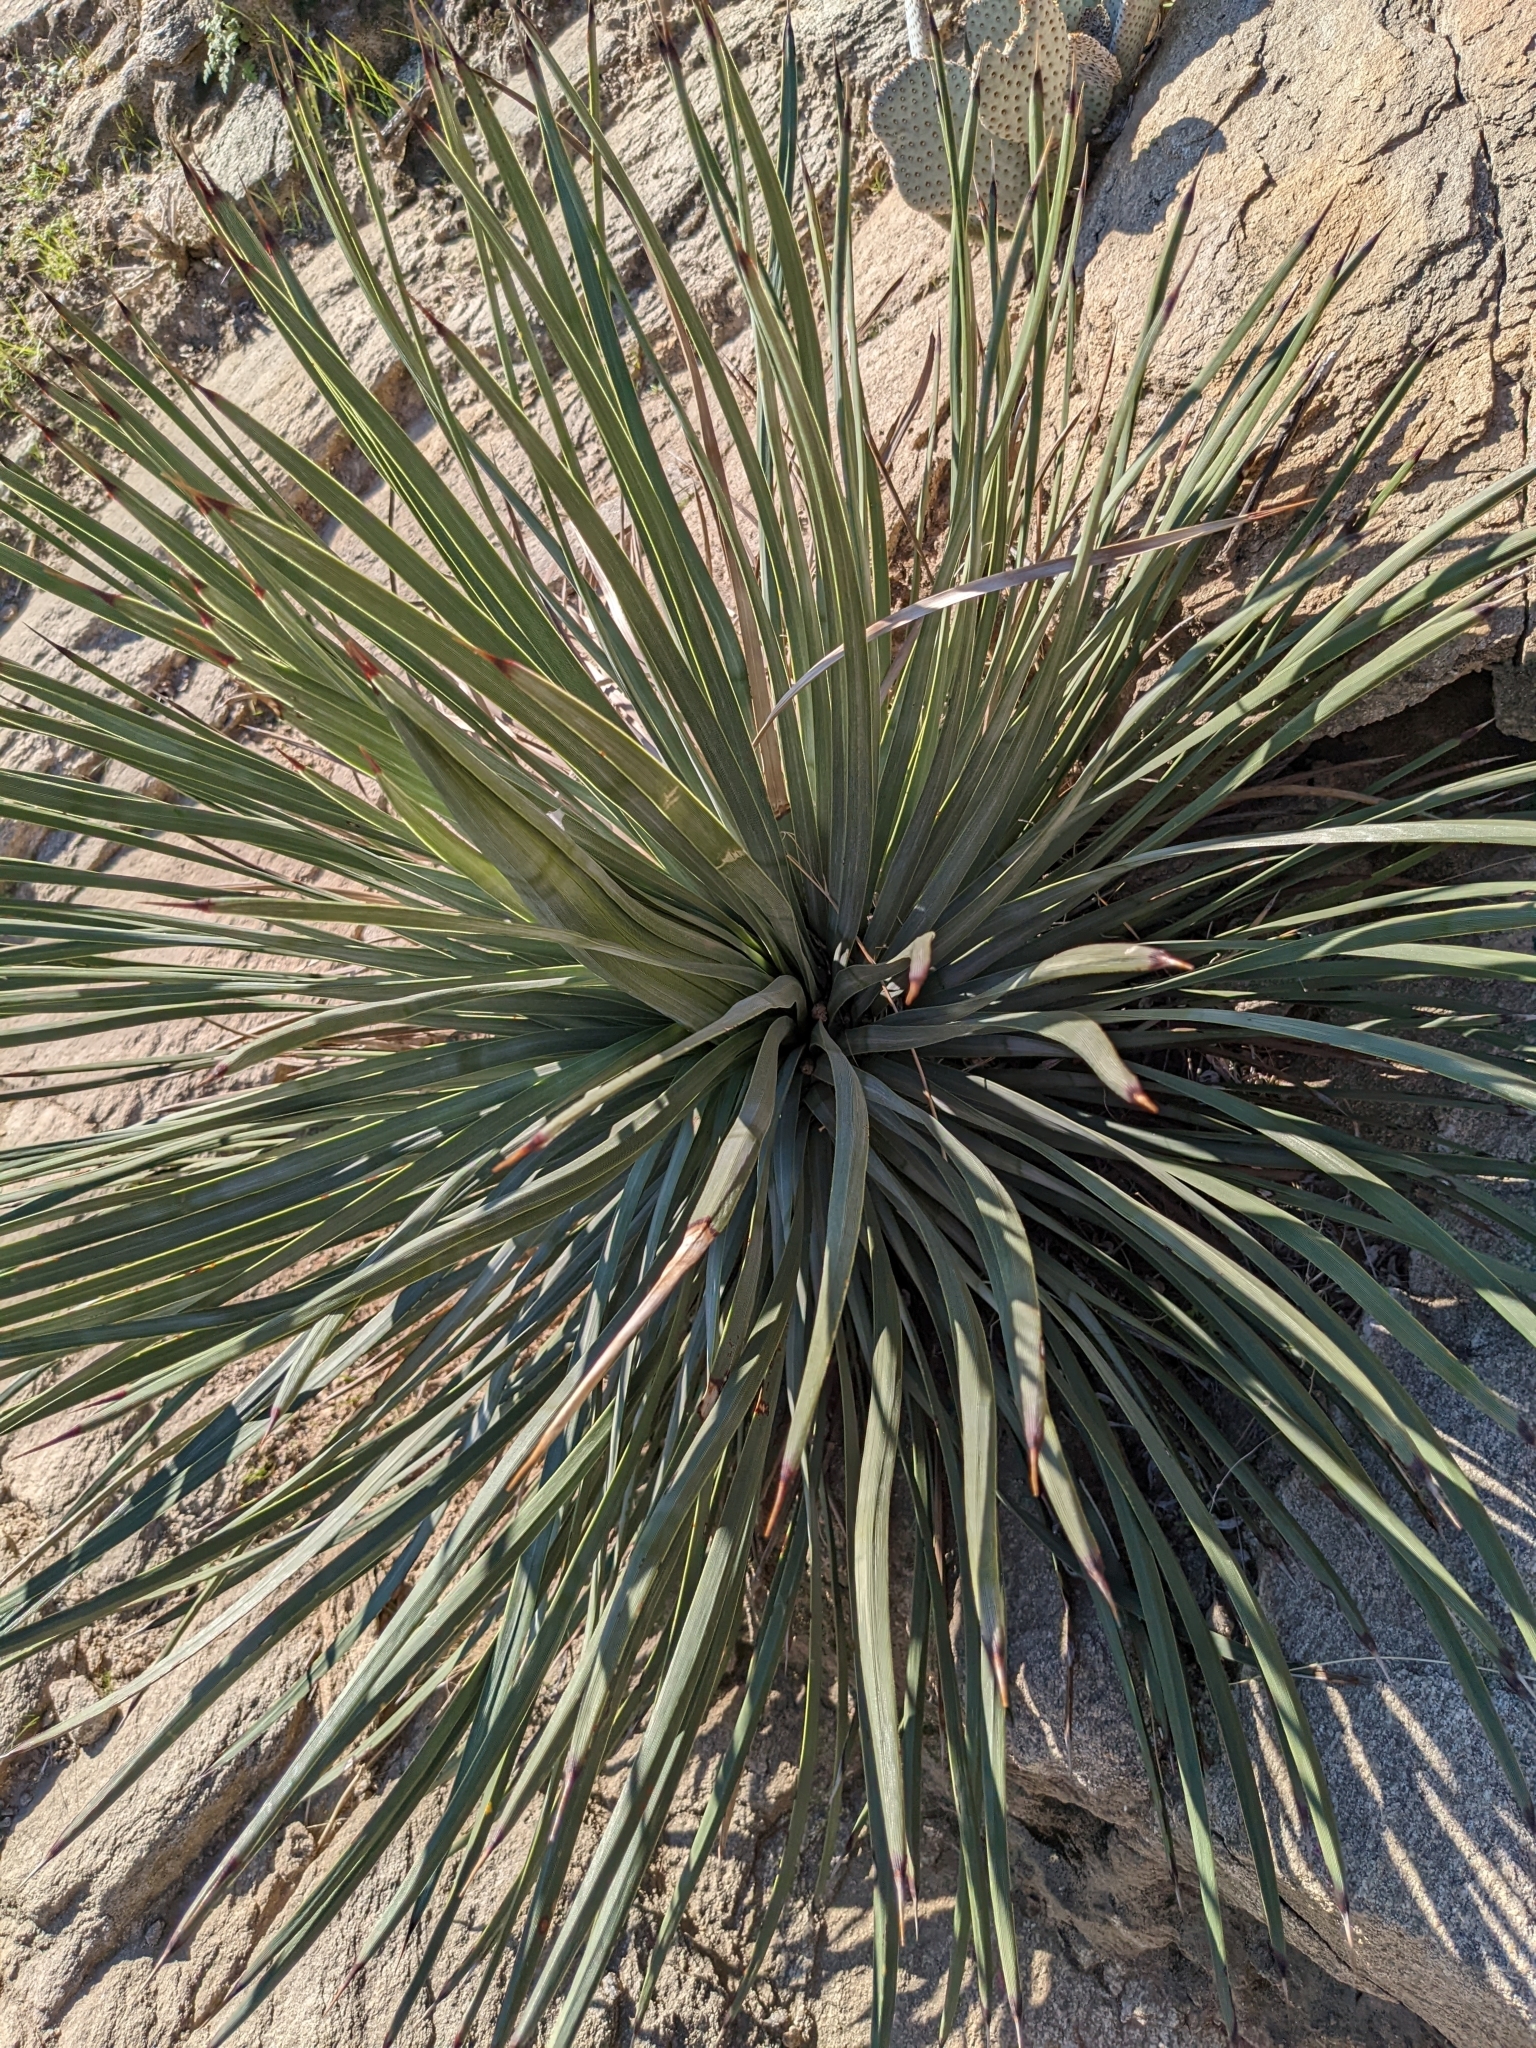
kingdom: Plantae
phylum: Tracheophyta
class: Liliopsida
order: Asparagales
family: Asparagaceae
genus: Hesperoyucca
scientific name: Hesperoyucca whipplei
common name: Our lord's-candle
